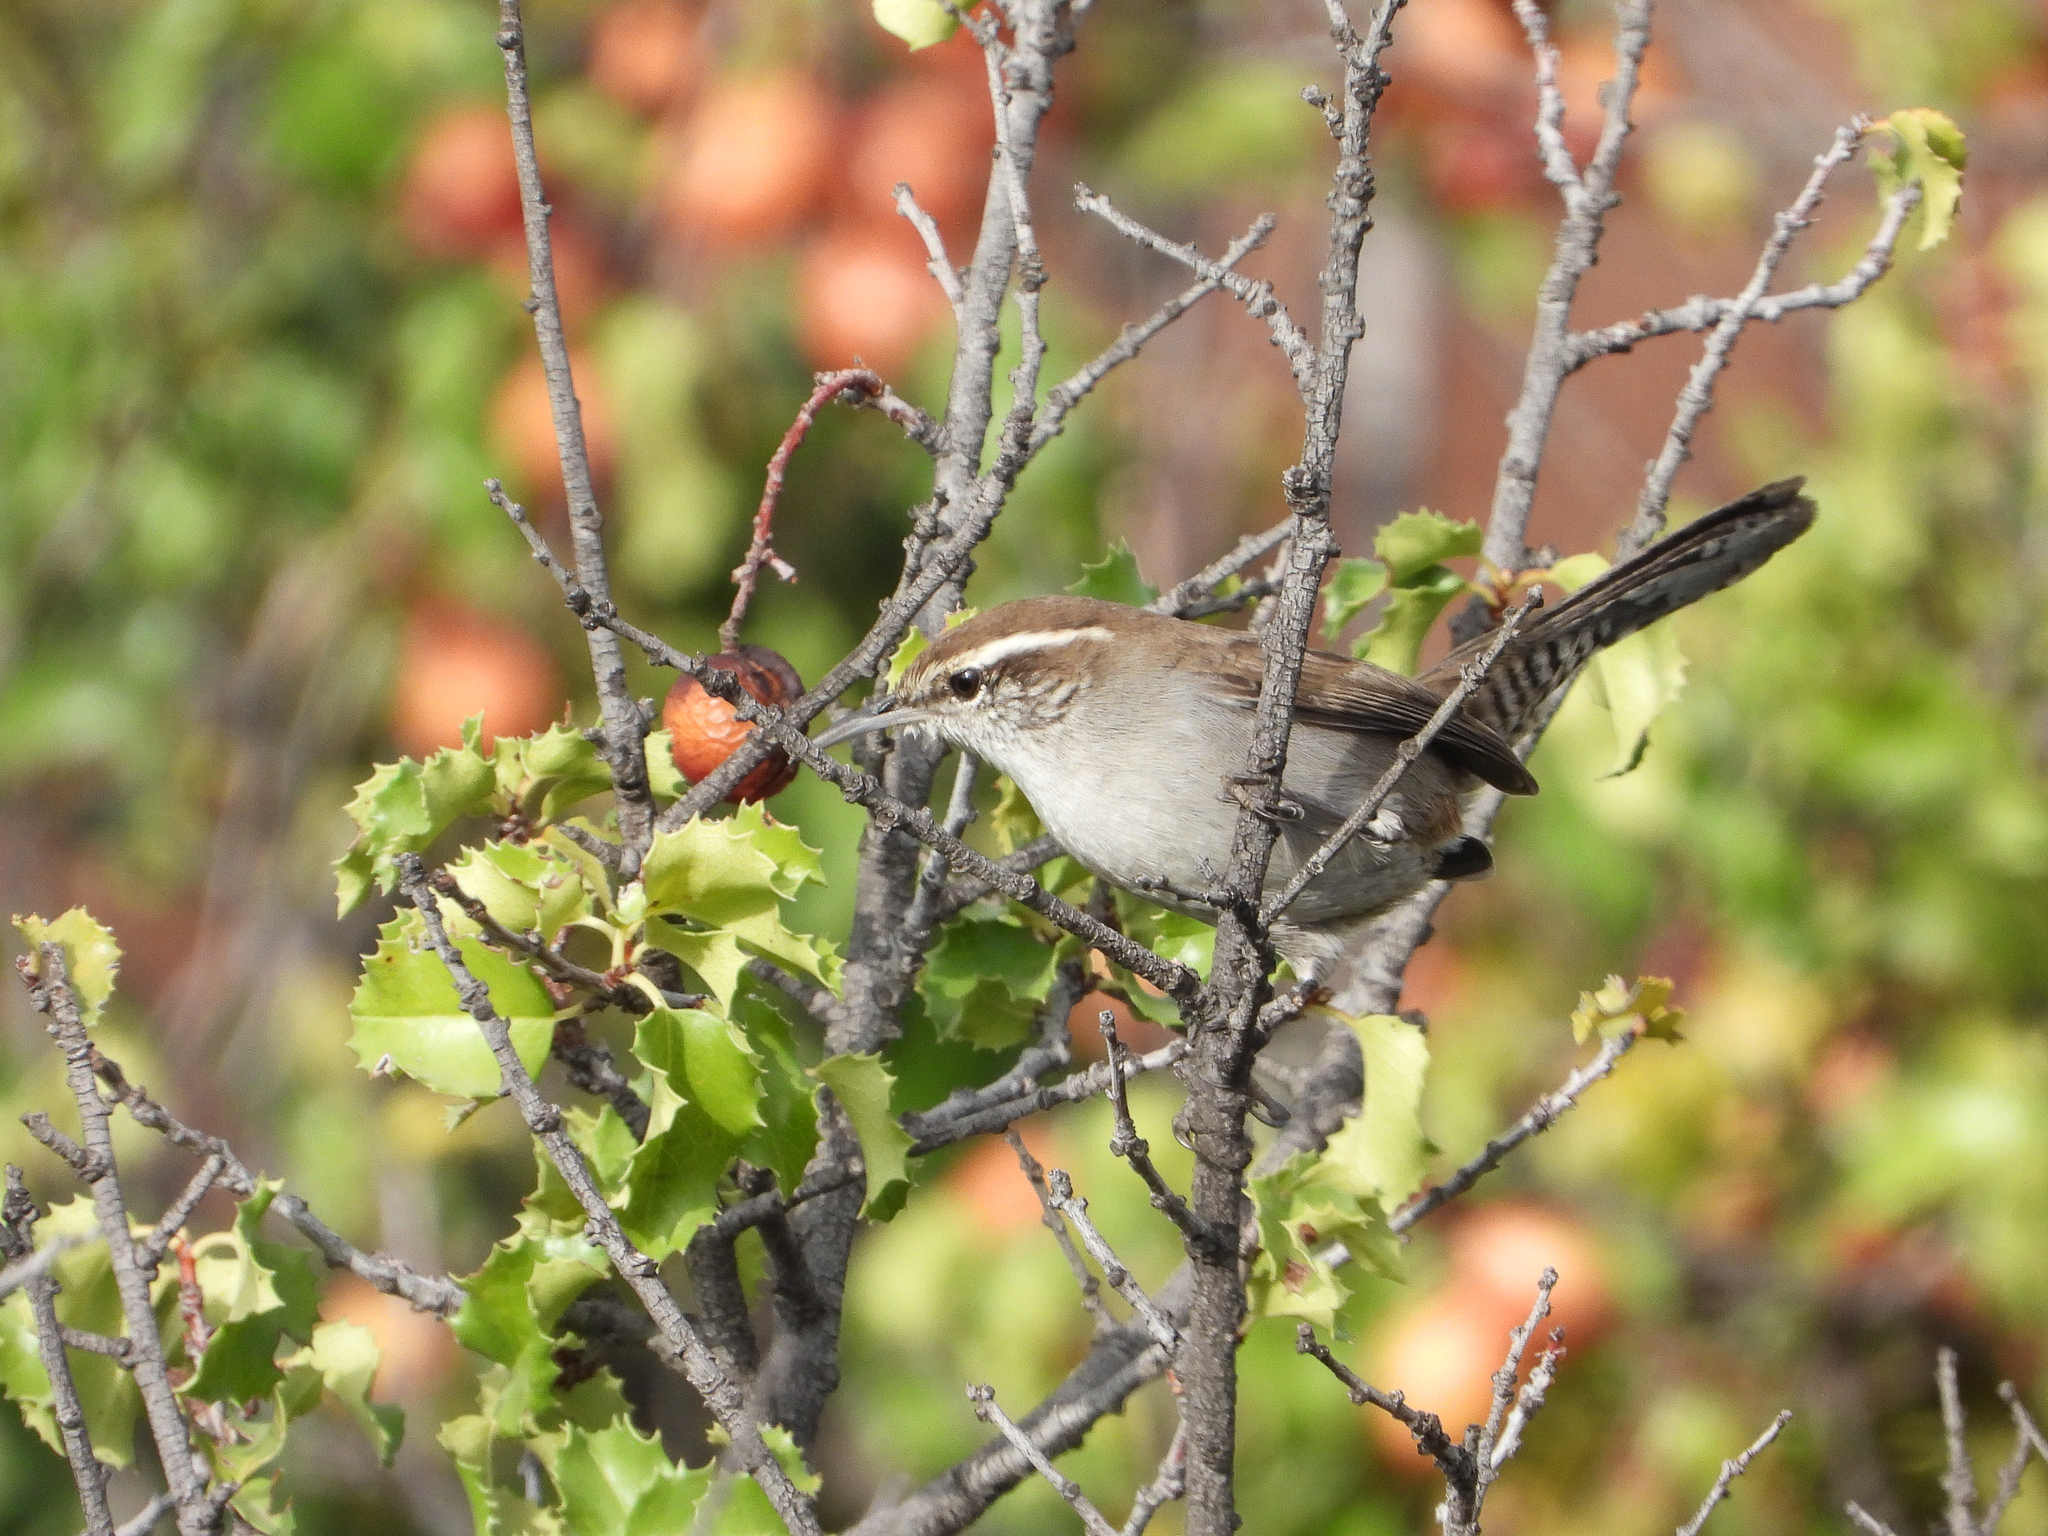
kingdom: Animalia
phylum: Chordata
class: Aves
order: Passeriformes
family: Troglodytidae
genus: Thryomanes
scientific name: Thryomanes bewickii
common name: Bewick's wren
